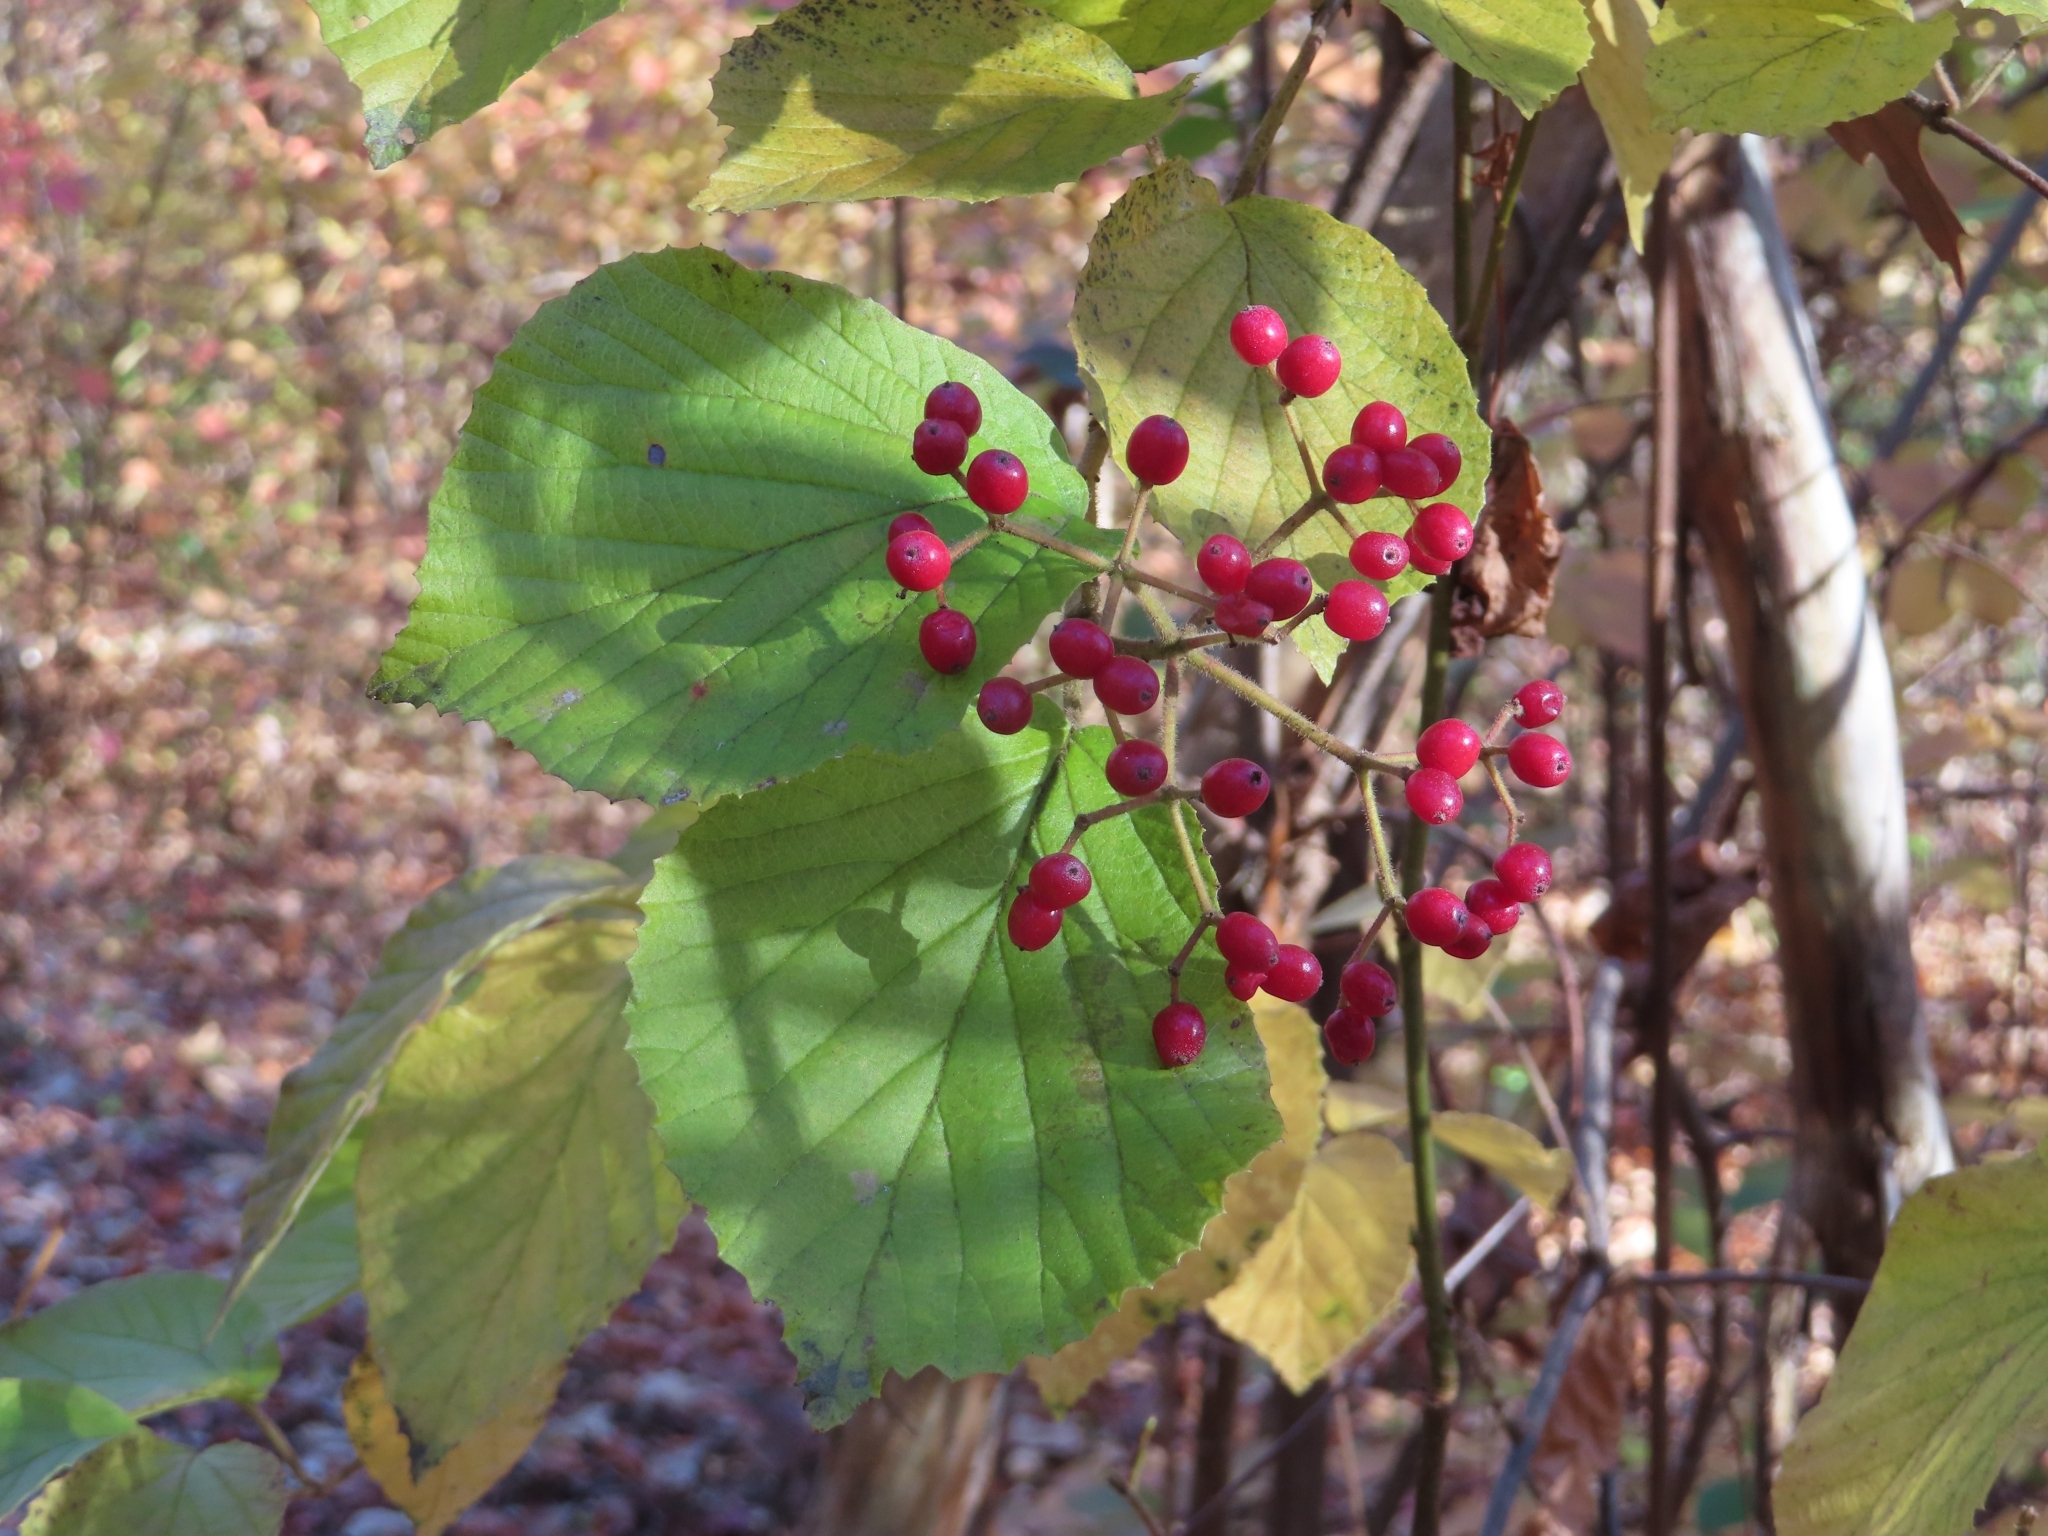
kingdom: Plantae
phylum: Tracheophyta
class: Magnoliopsida
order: Dipsacales
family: Viburnaceae
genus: Viburnum
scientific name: Viburnum dilatatum
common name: Linden arrowwood
